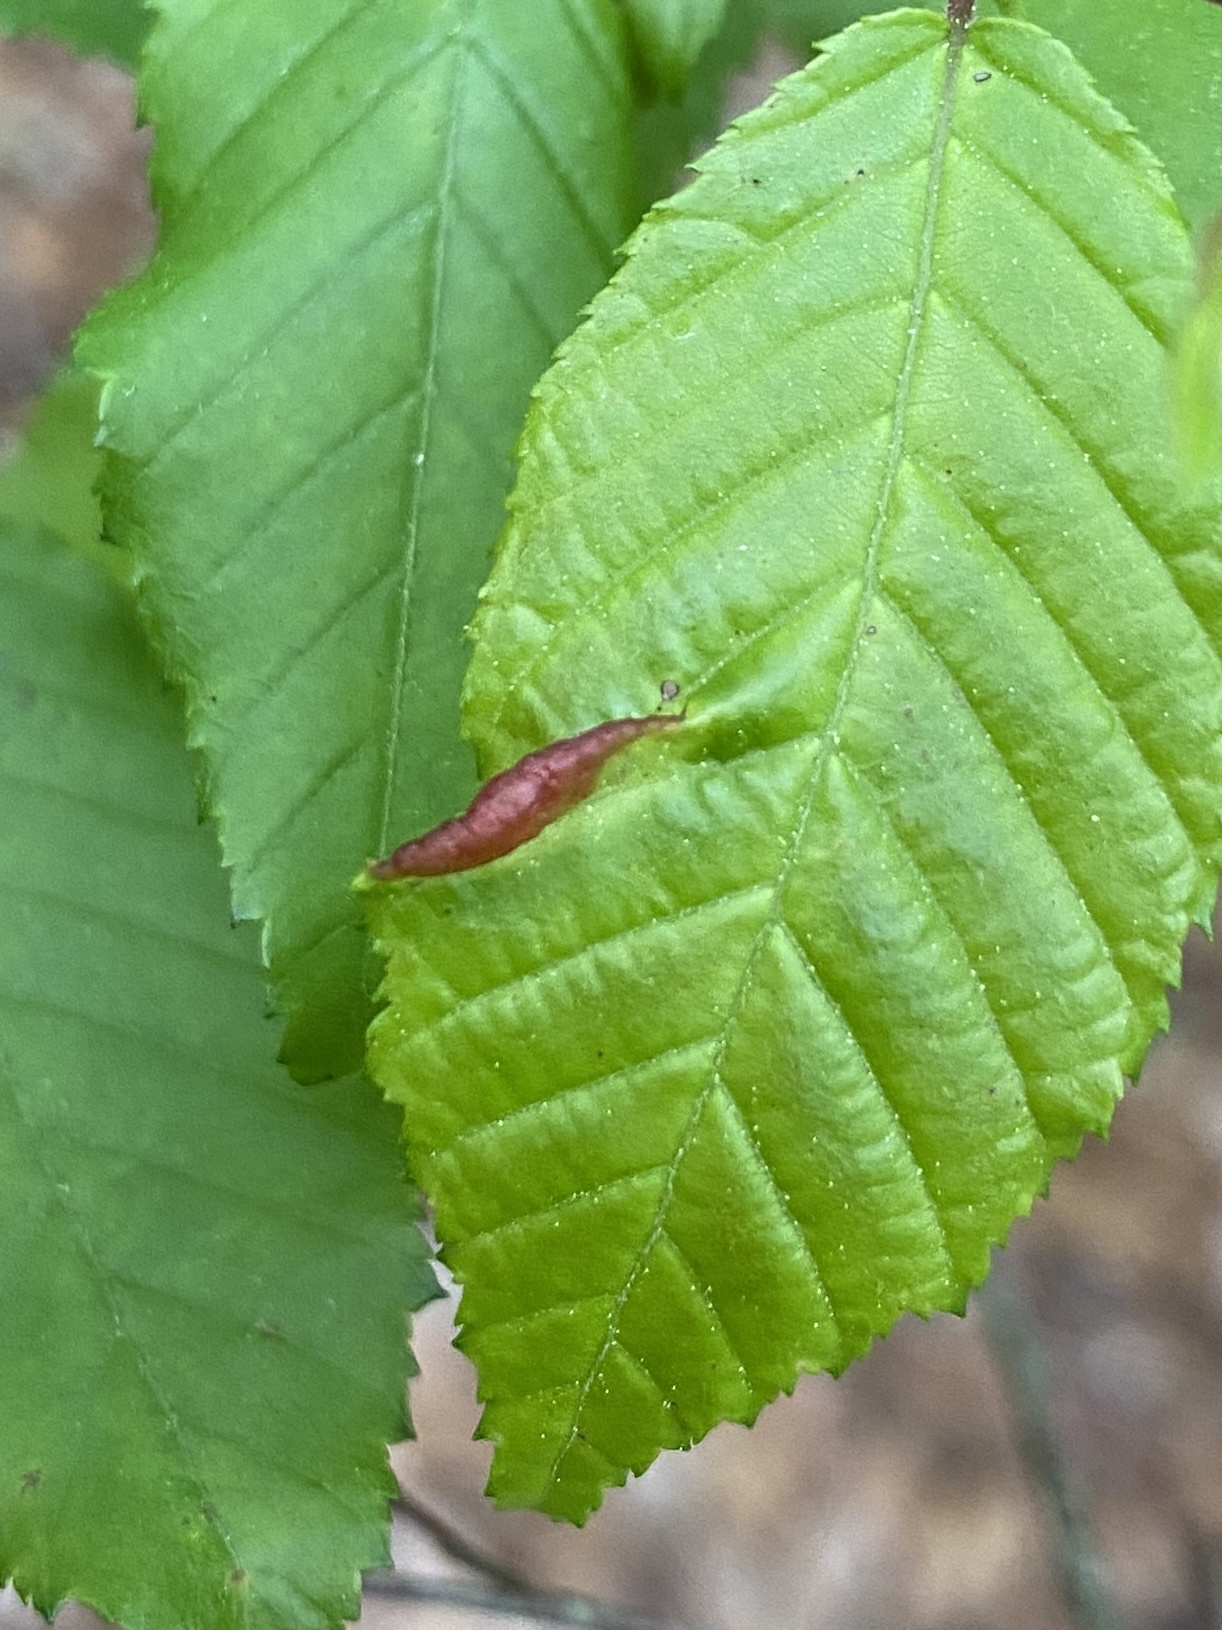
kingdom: Animalia
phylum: Arthropoda
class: Insecta
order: Diptera
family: Cecidomyiidae
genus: Dasineura
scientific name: Dasineura pudibunda
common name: Hornbeam leaf gall midge
